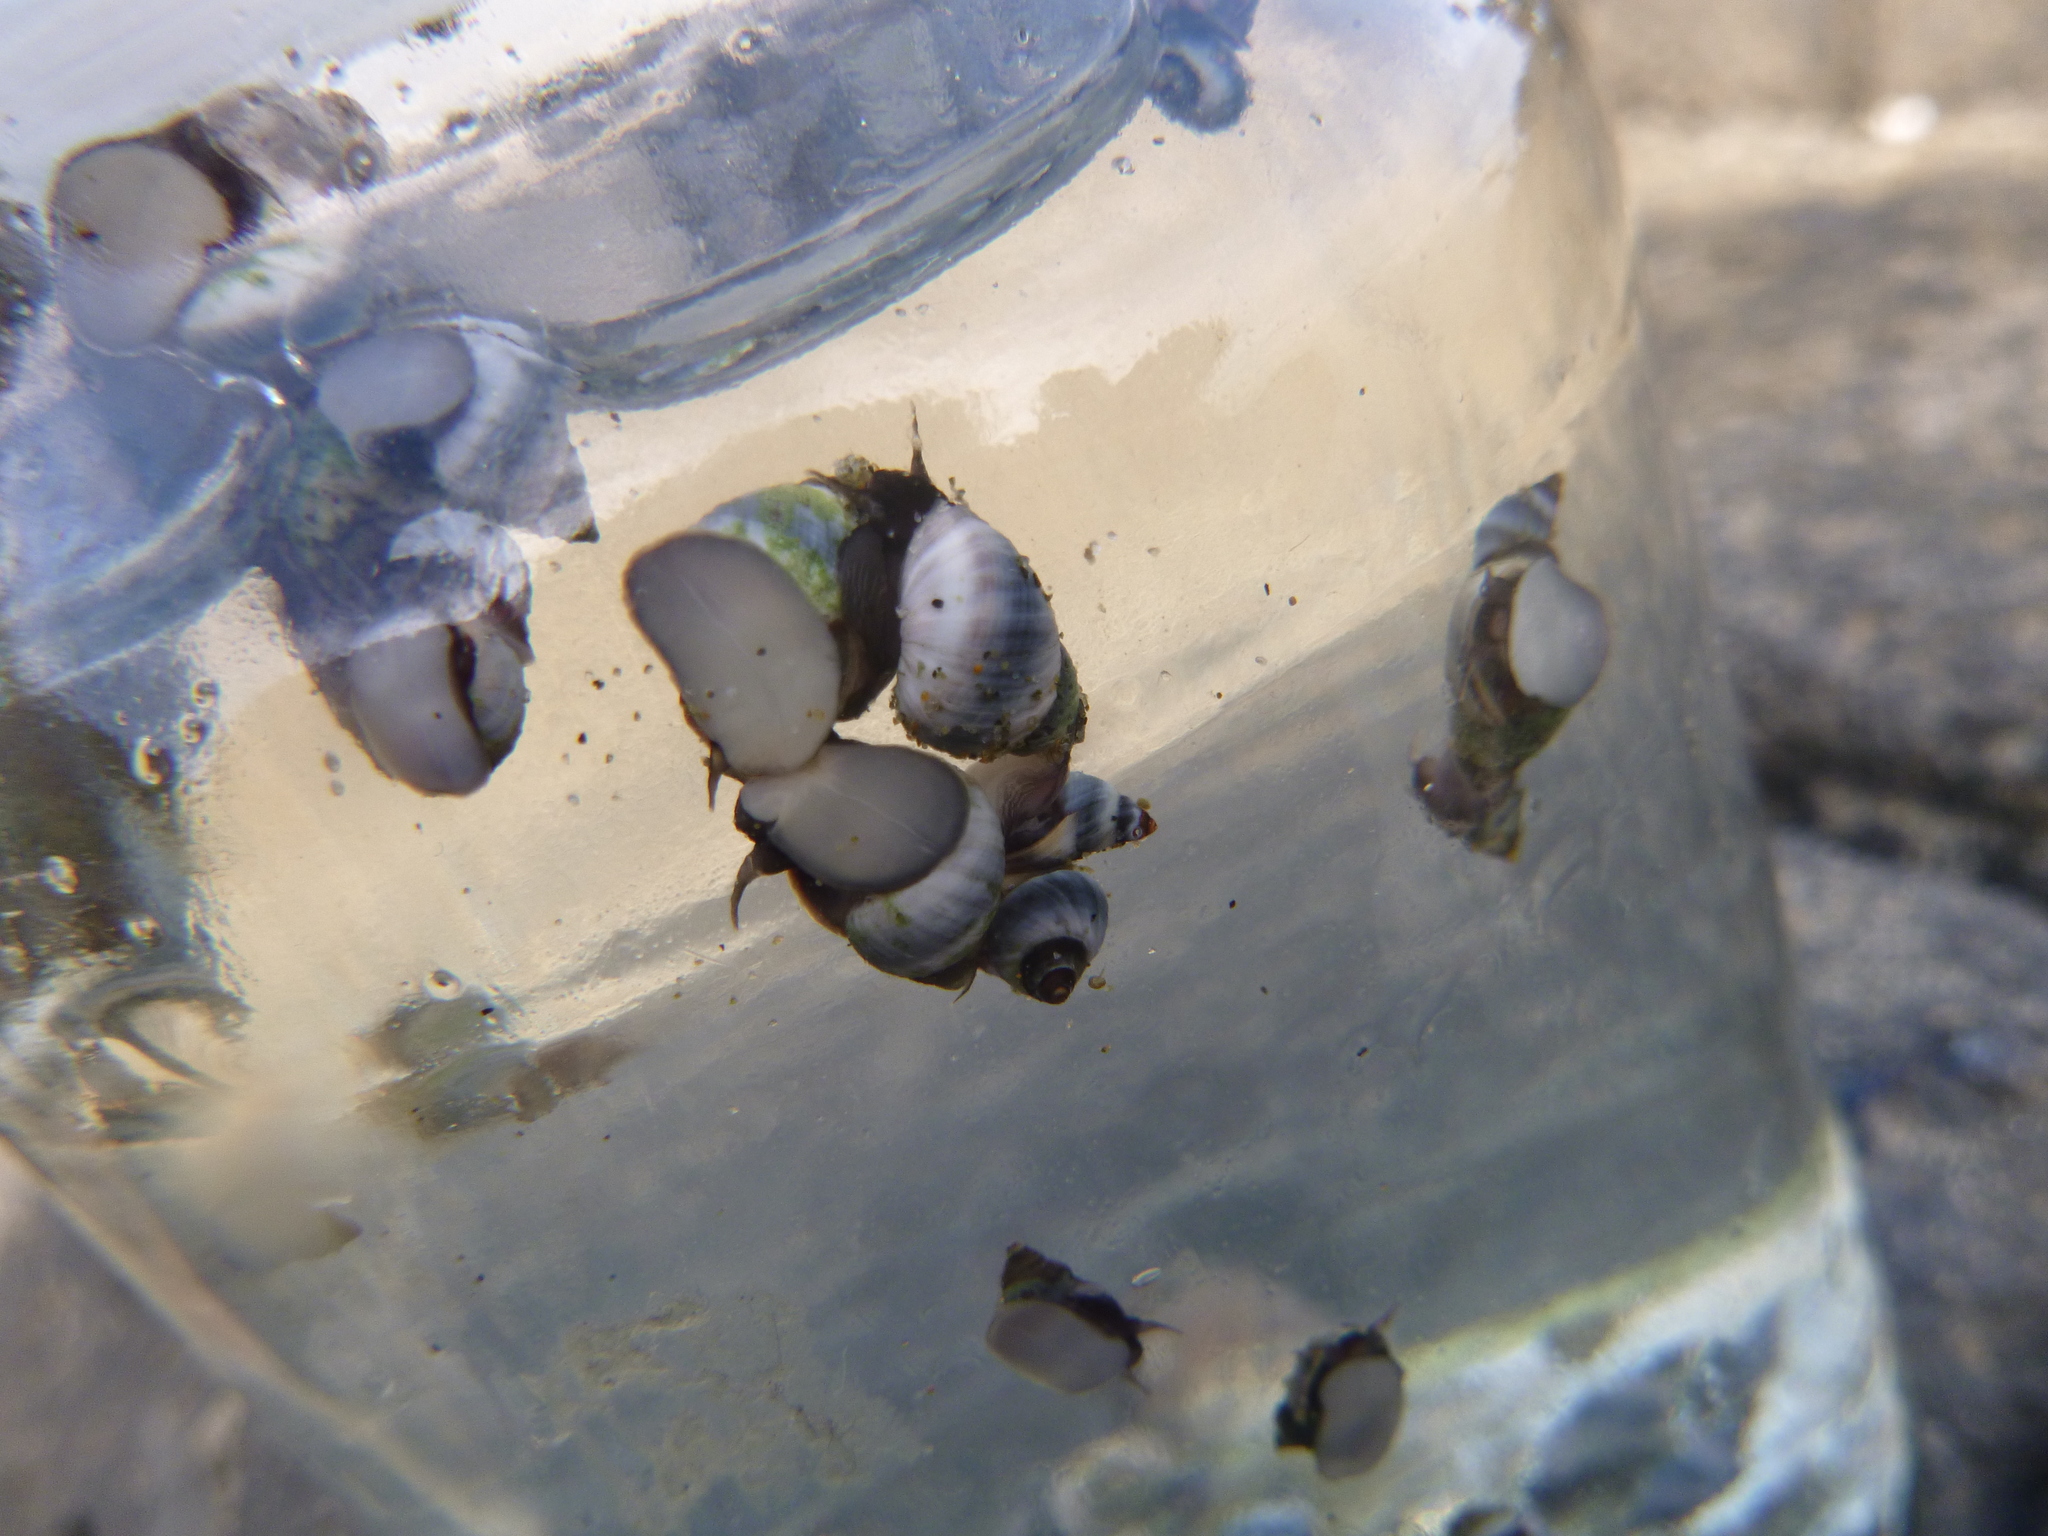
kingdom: Animalia
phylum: Mollusca
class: Gastropoda
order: Littorinimorpha
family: Littorinidae
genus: Austrolittorina
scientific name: Austrolittorina antipodum
